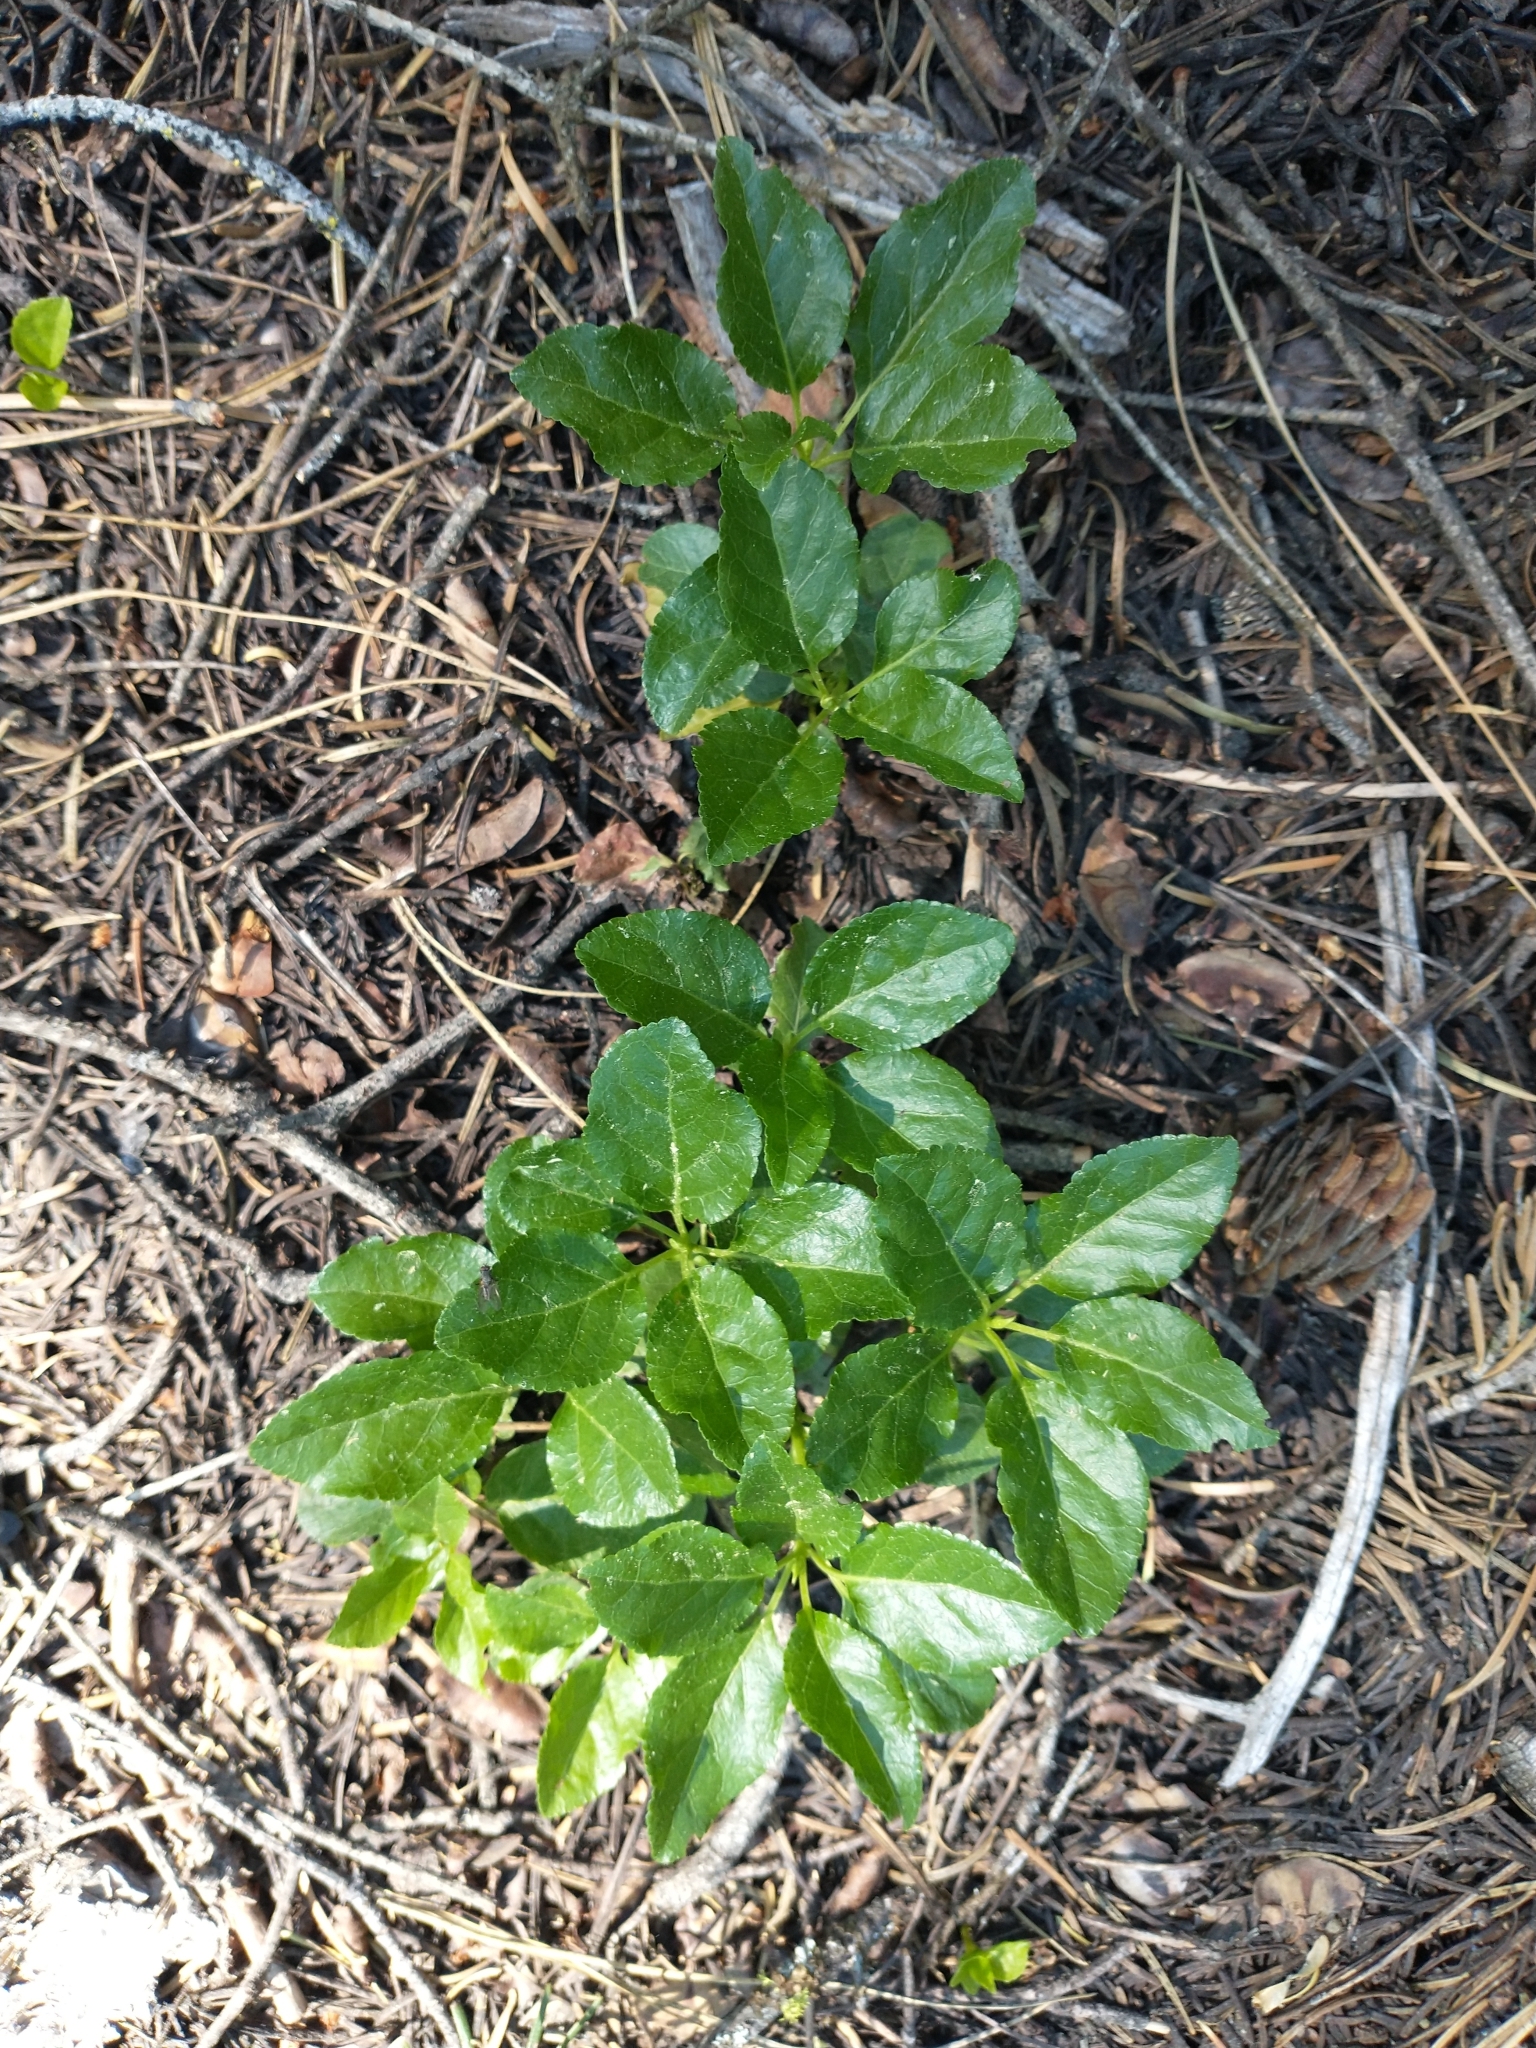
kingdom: Plantae
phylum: Tracheophyta
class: Magnoliopsida
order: Ericales
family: Ericaceae
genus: Orthilia
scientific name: Orthilia secunda
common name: One-sided orthilia
